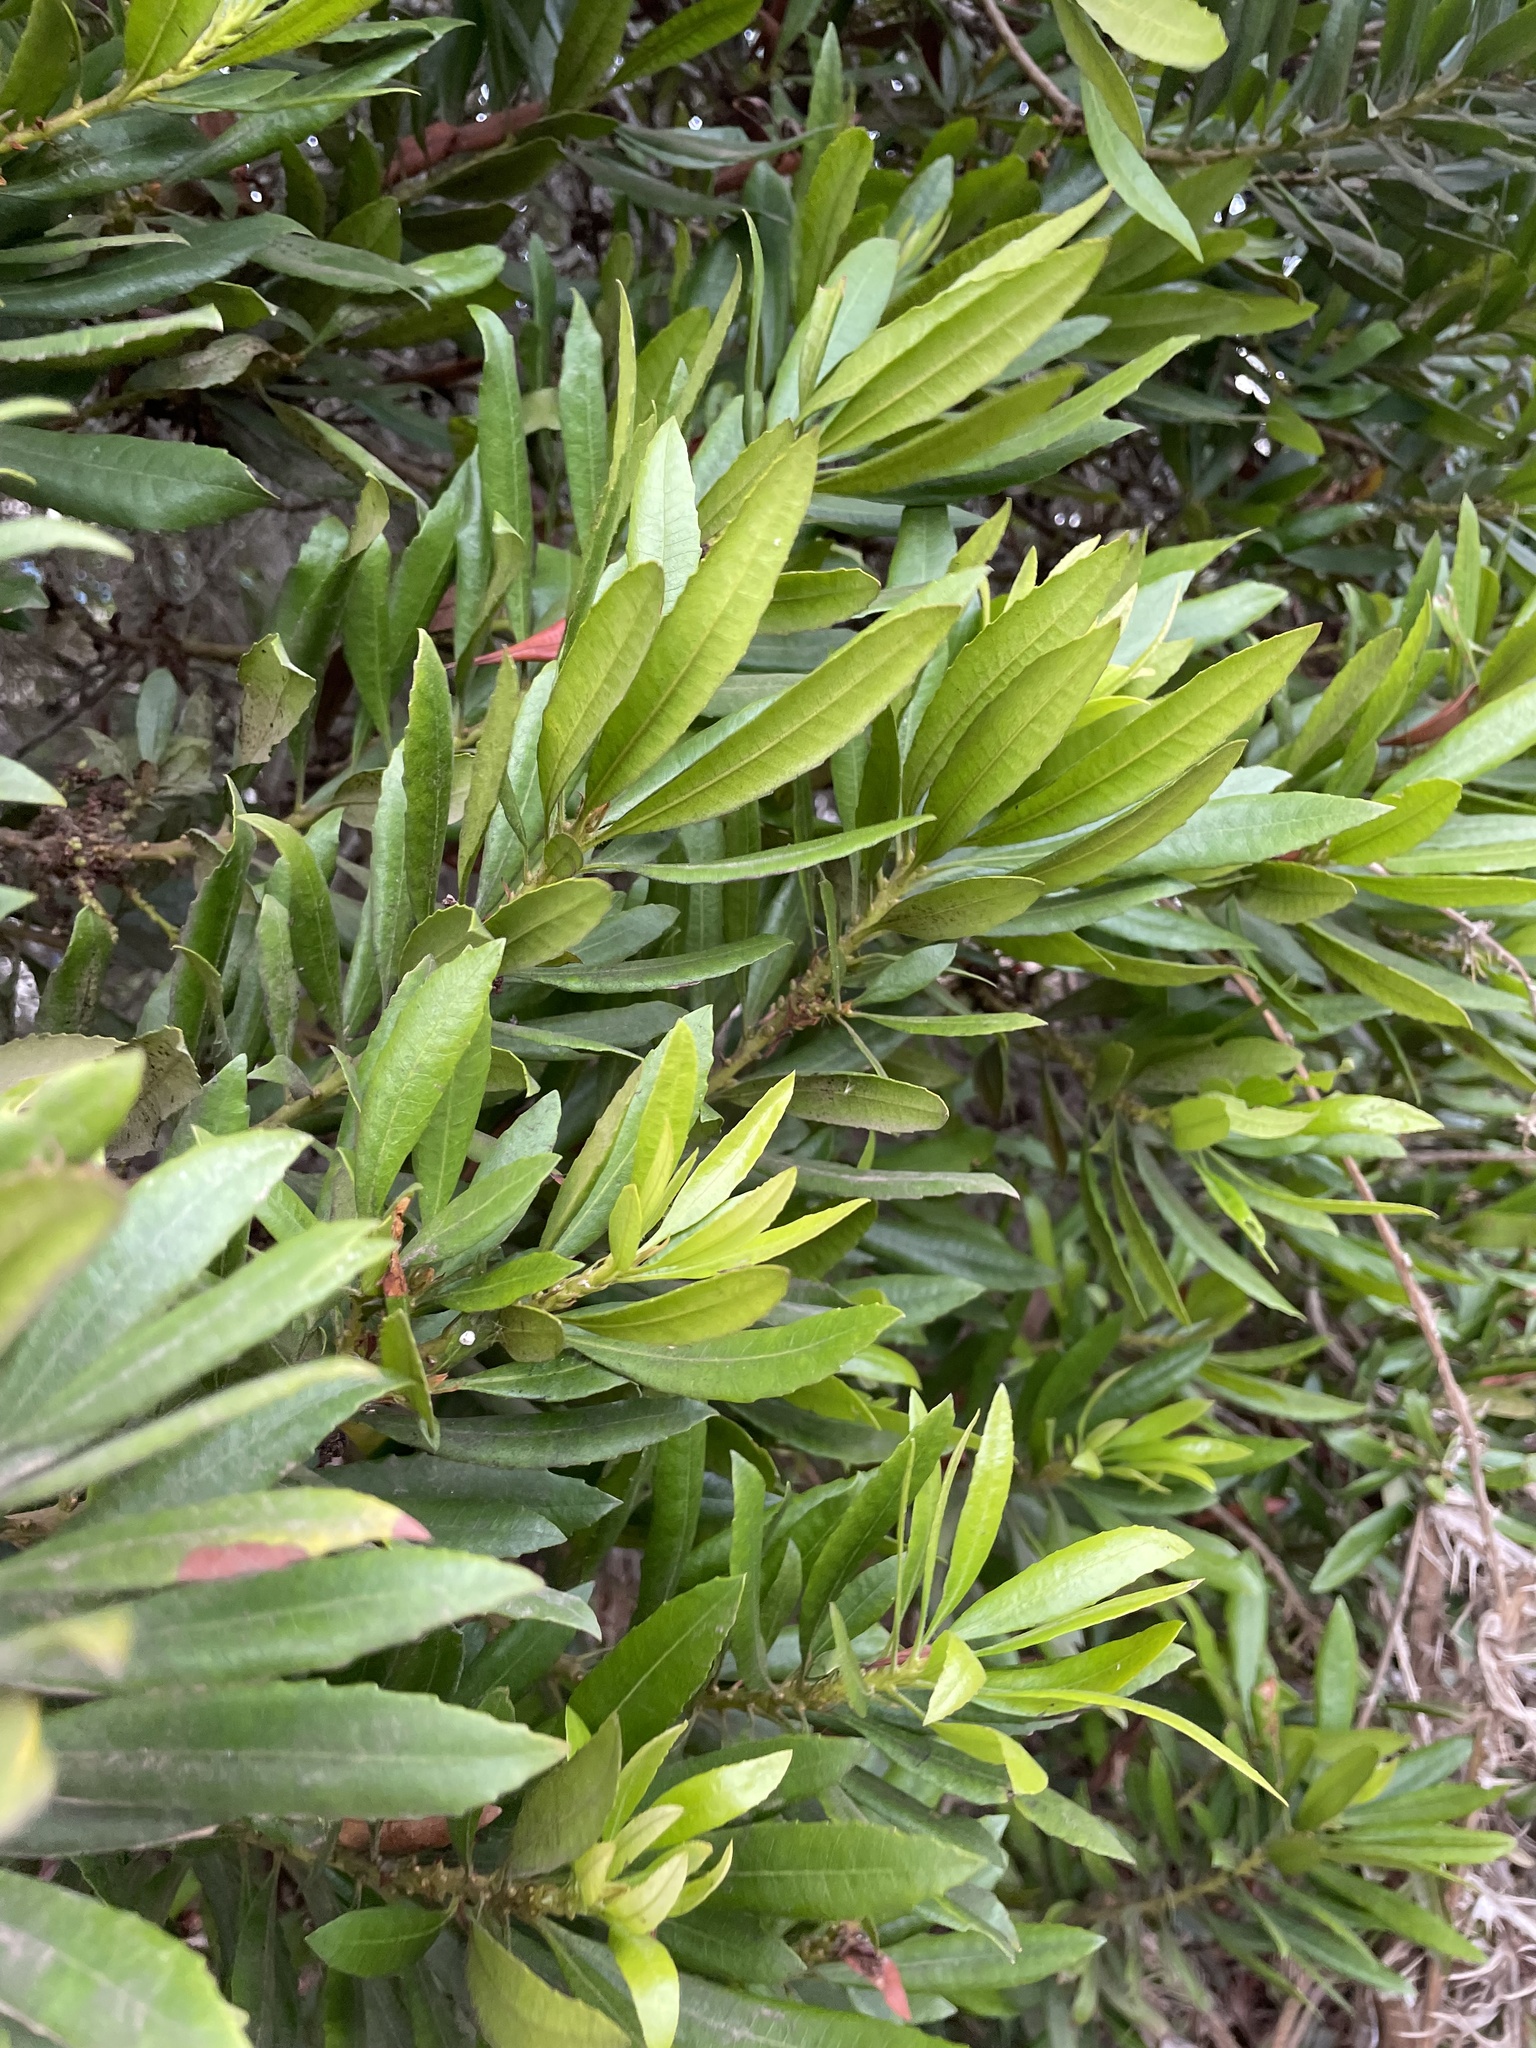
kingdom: Plantae
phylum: Tracheophyta
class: Magnoliopsida
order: Fagales
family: Myricaceae
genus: Morella
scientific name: Morella californica
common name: California wax-myrtle
